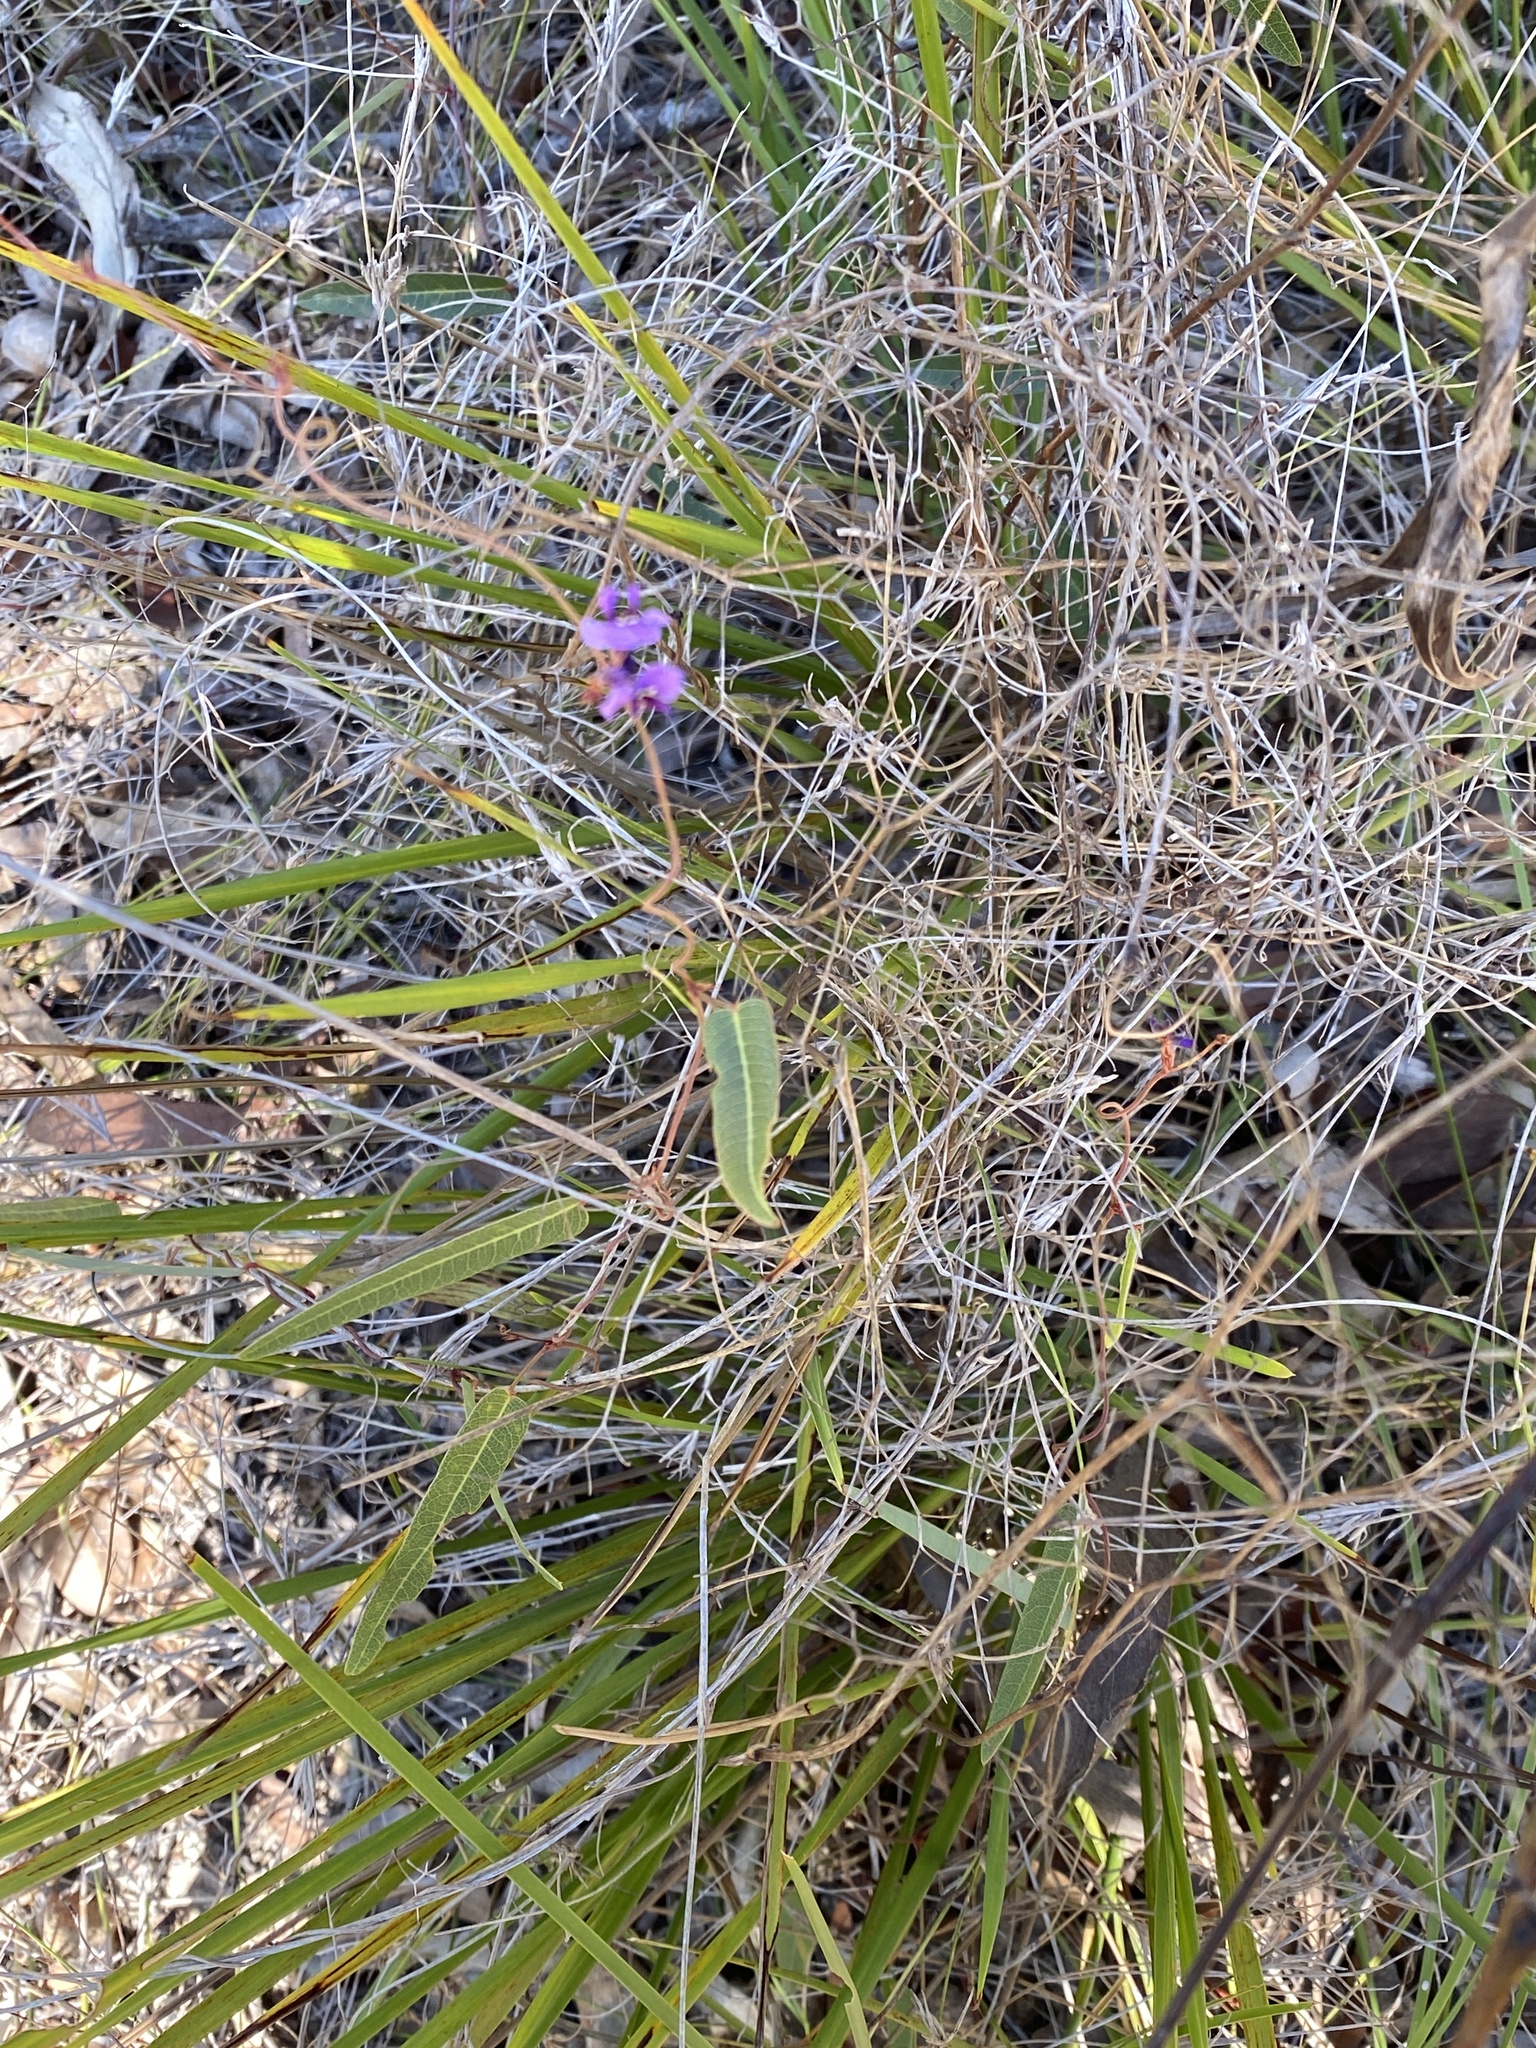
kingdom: Plantae
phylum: Tracheophyta
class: Magnoliopsida
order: Fabales
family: Fabaceae
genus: Hardenbergia
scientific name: Hardenbergia violacea
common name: Coral-pea
